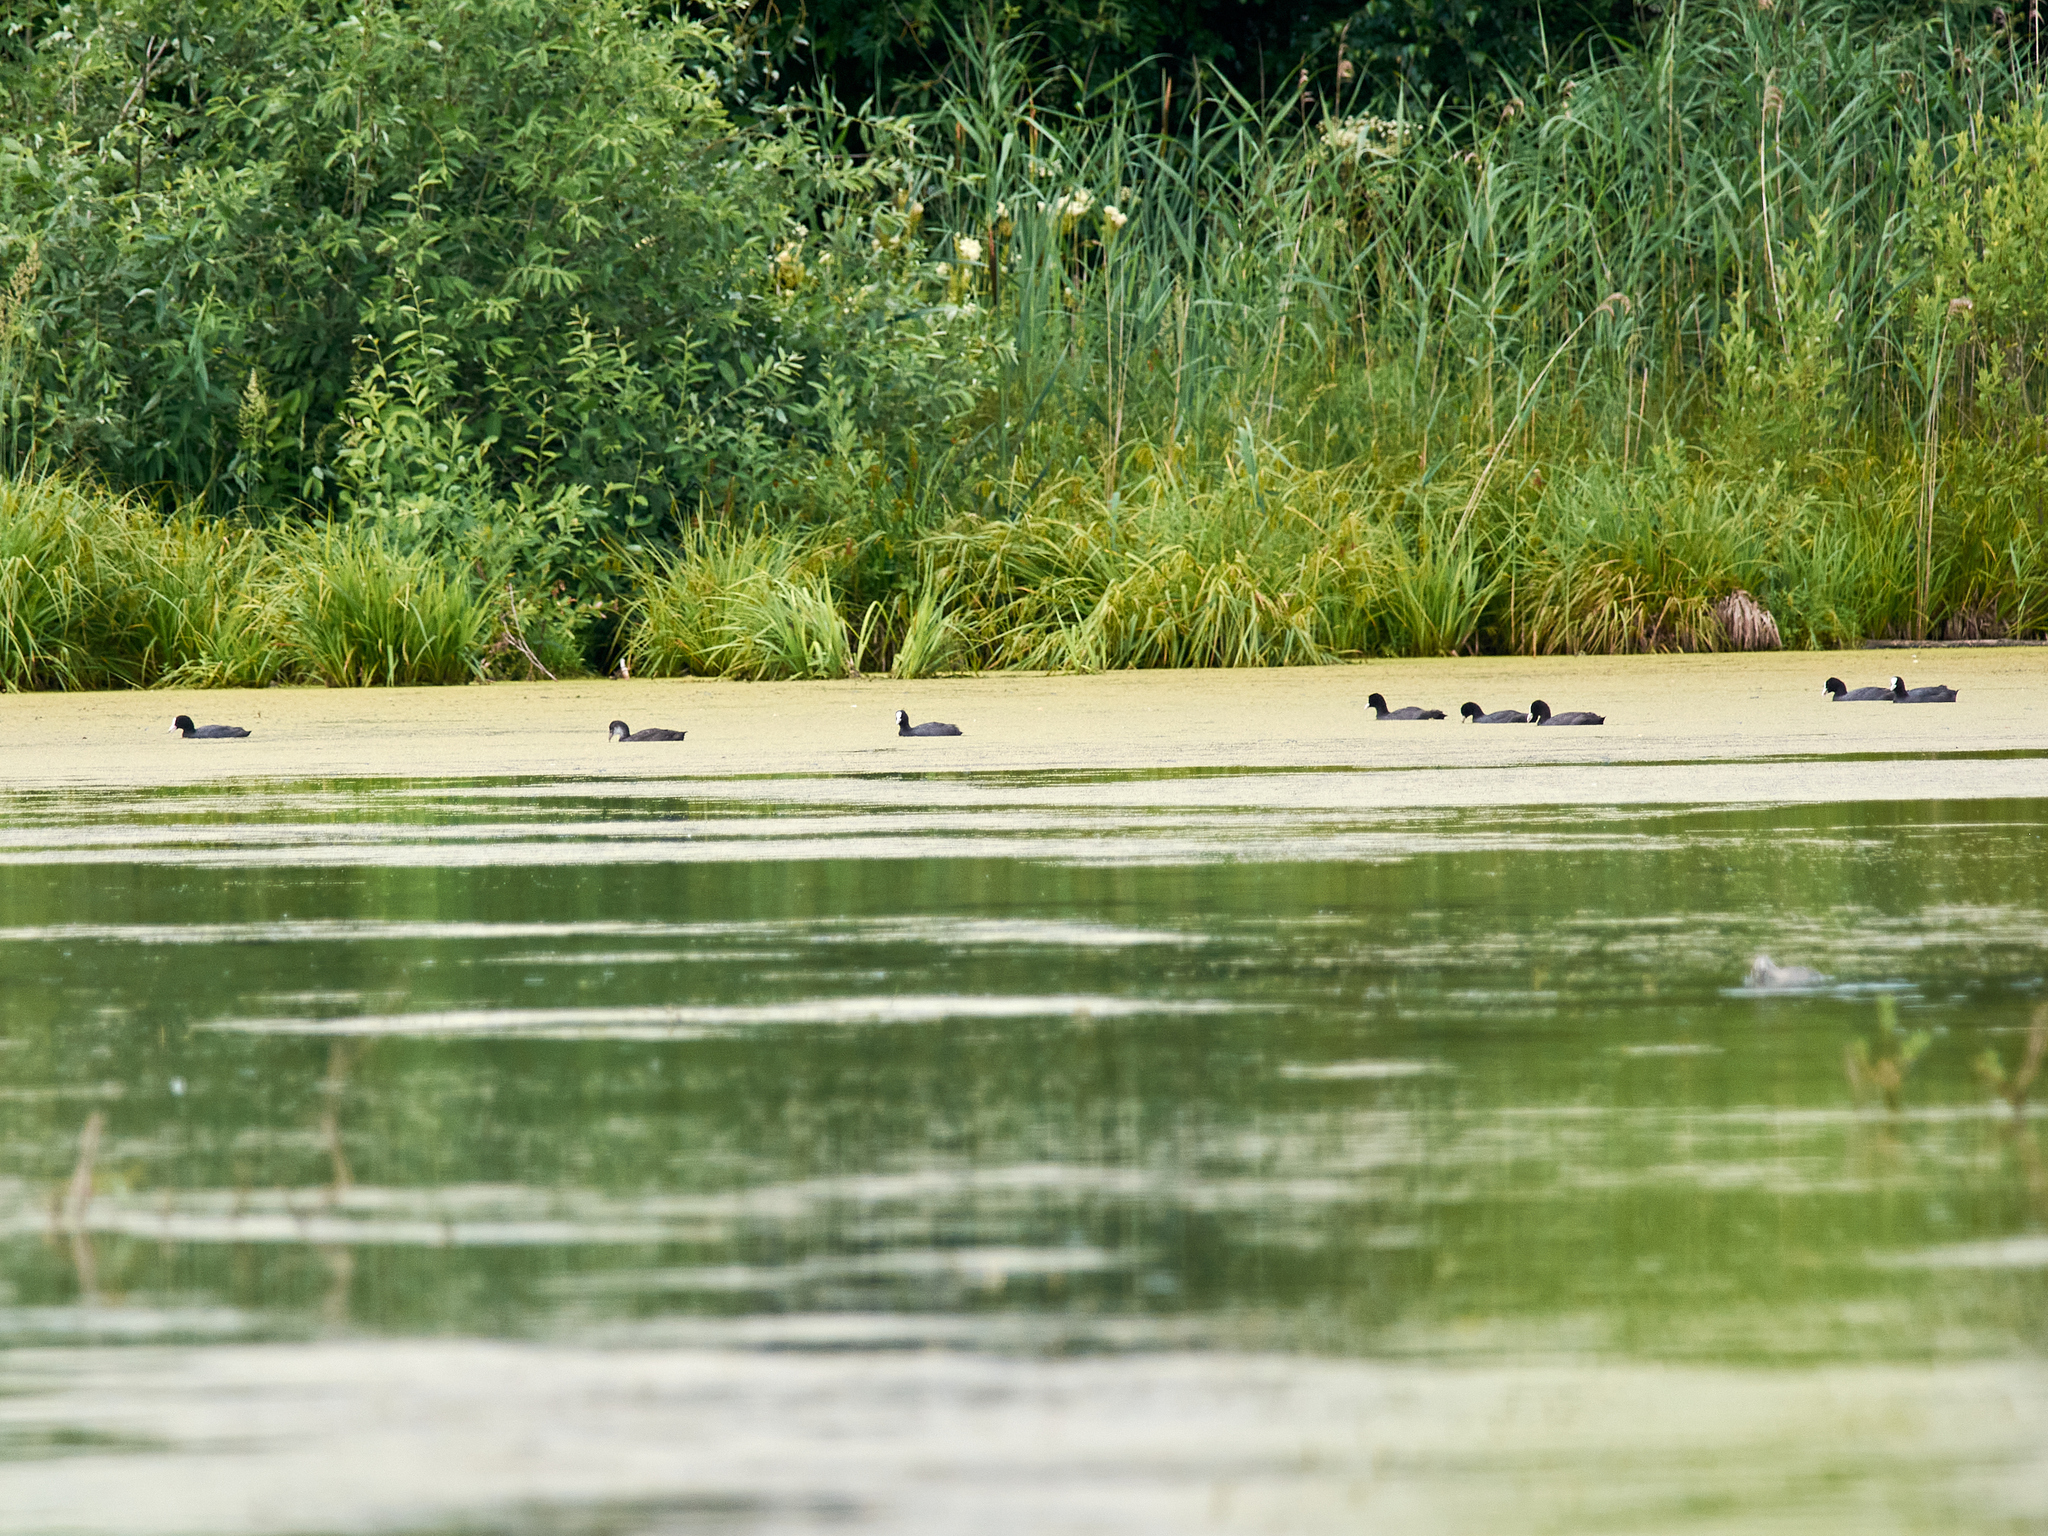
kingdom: Animalia
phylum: Chordata
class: Aves
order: Gruiformes
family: Rallidae
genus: Fulica
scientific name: Fulica atra
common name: Eurasian coot
